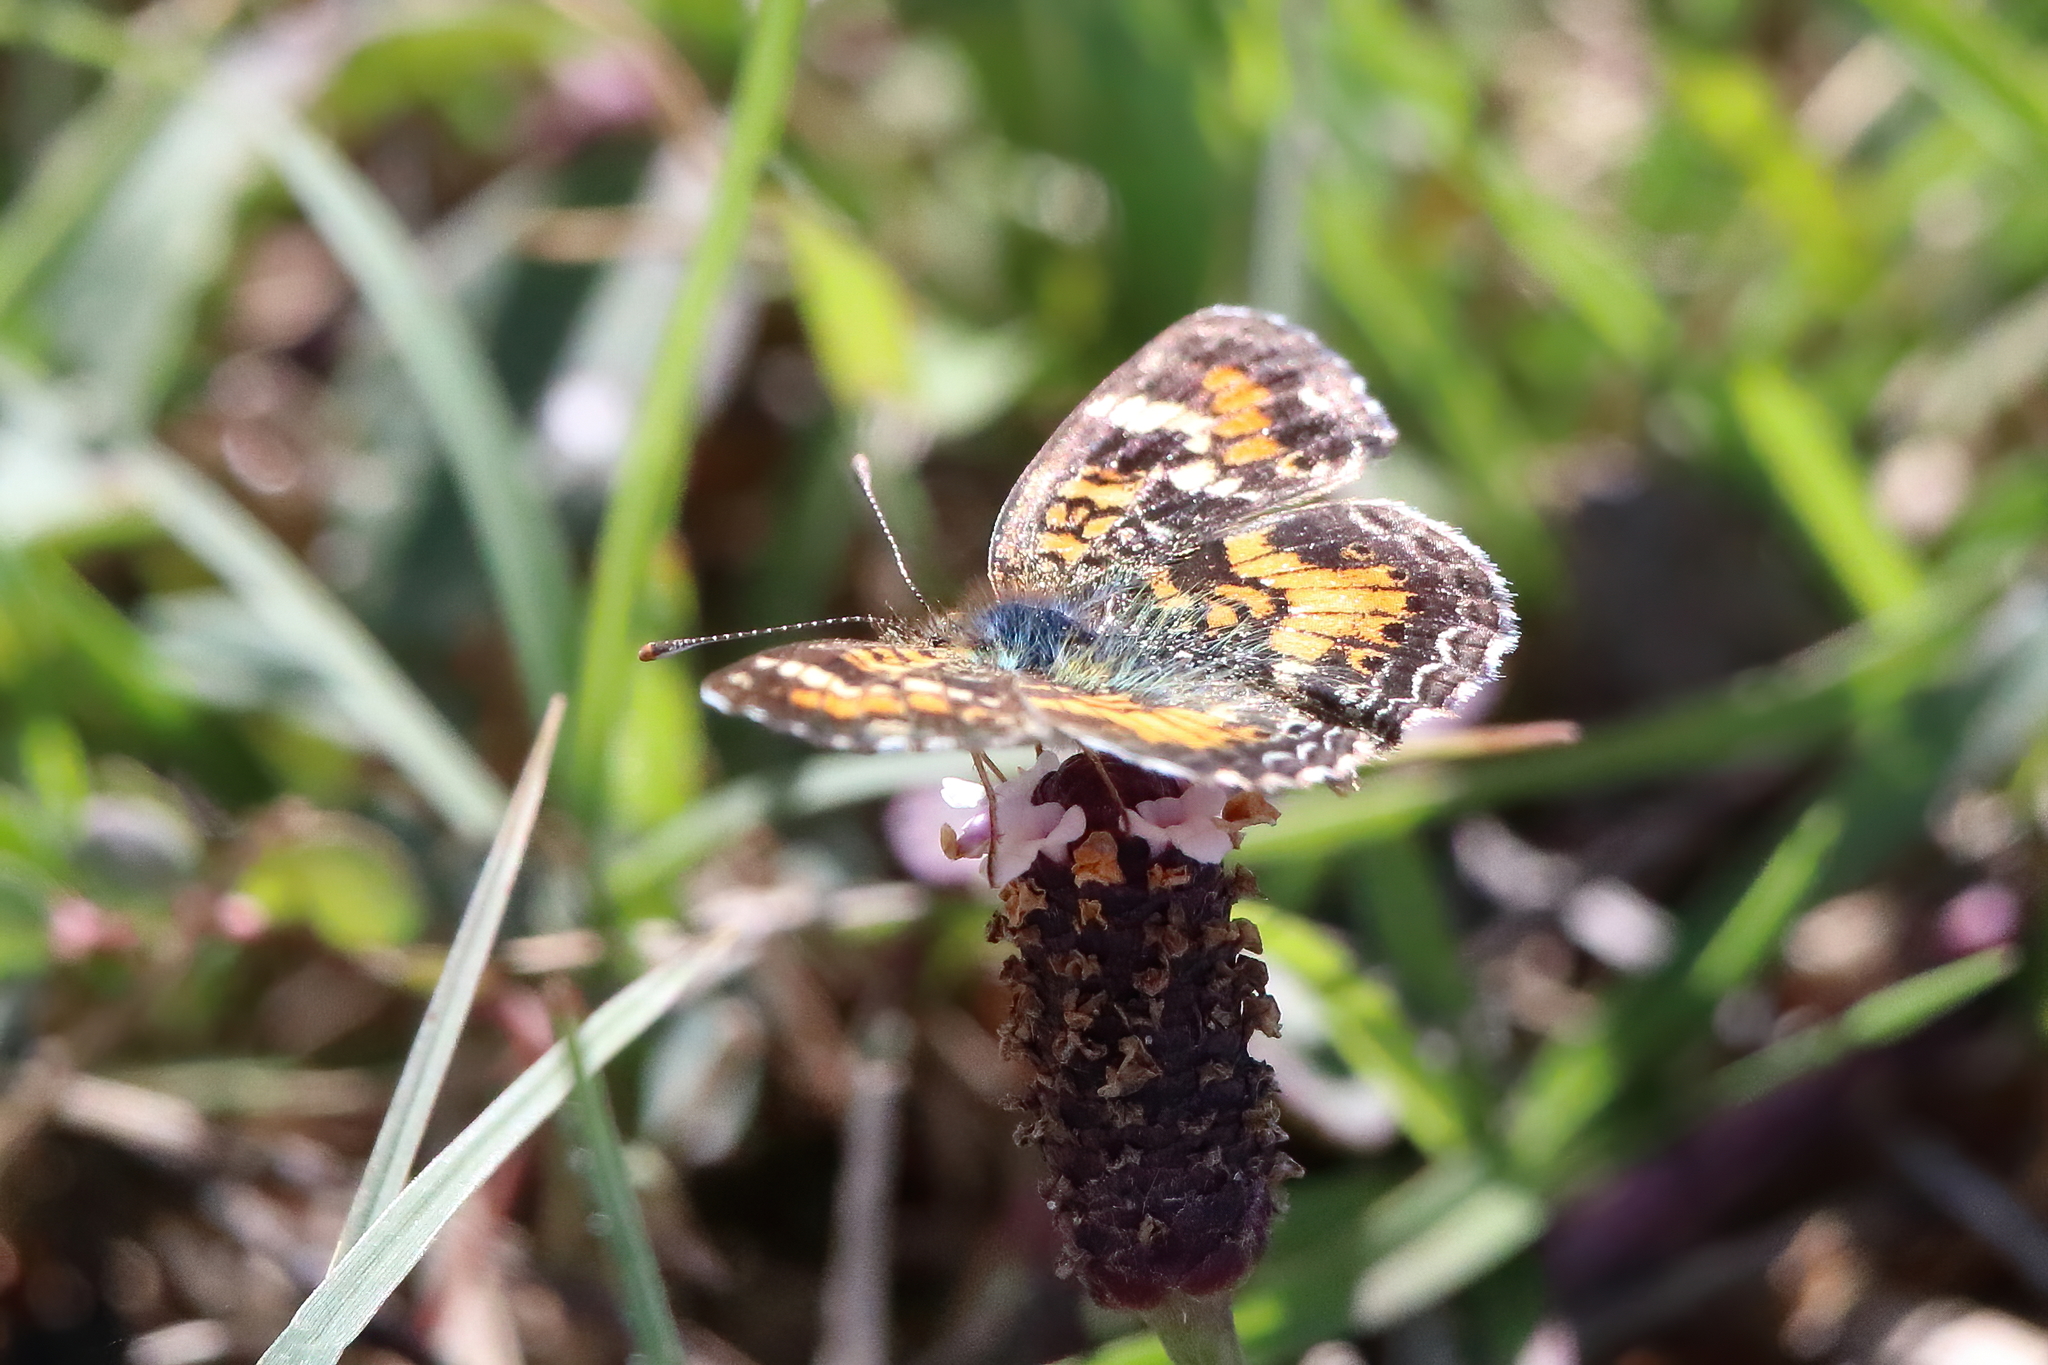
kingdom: Animalia
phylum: Arthropoda
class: Insecta
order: Lepidoptera
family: Nymphalidae
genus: Phyciodes
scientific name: Phyciodes phaon
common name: Phaon crescent
